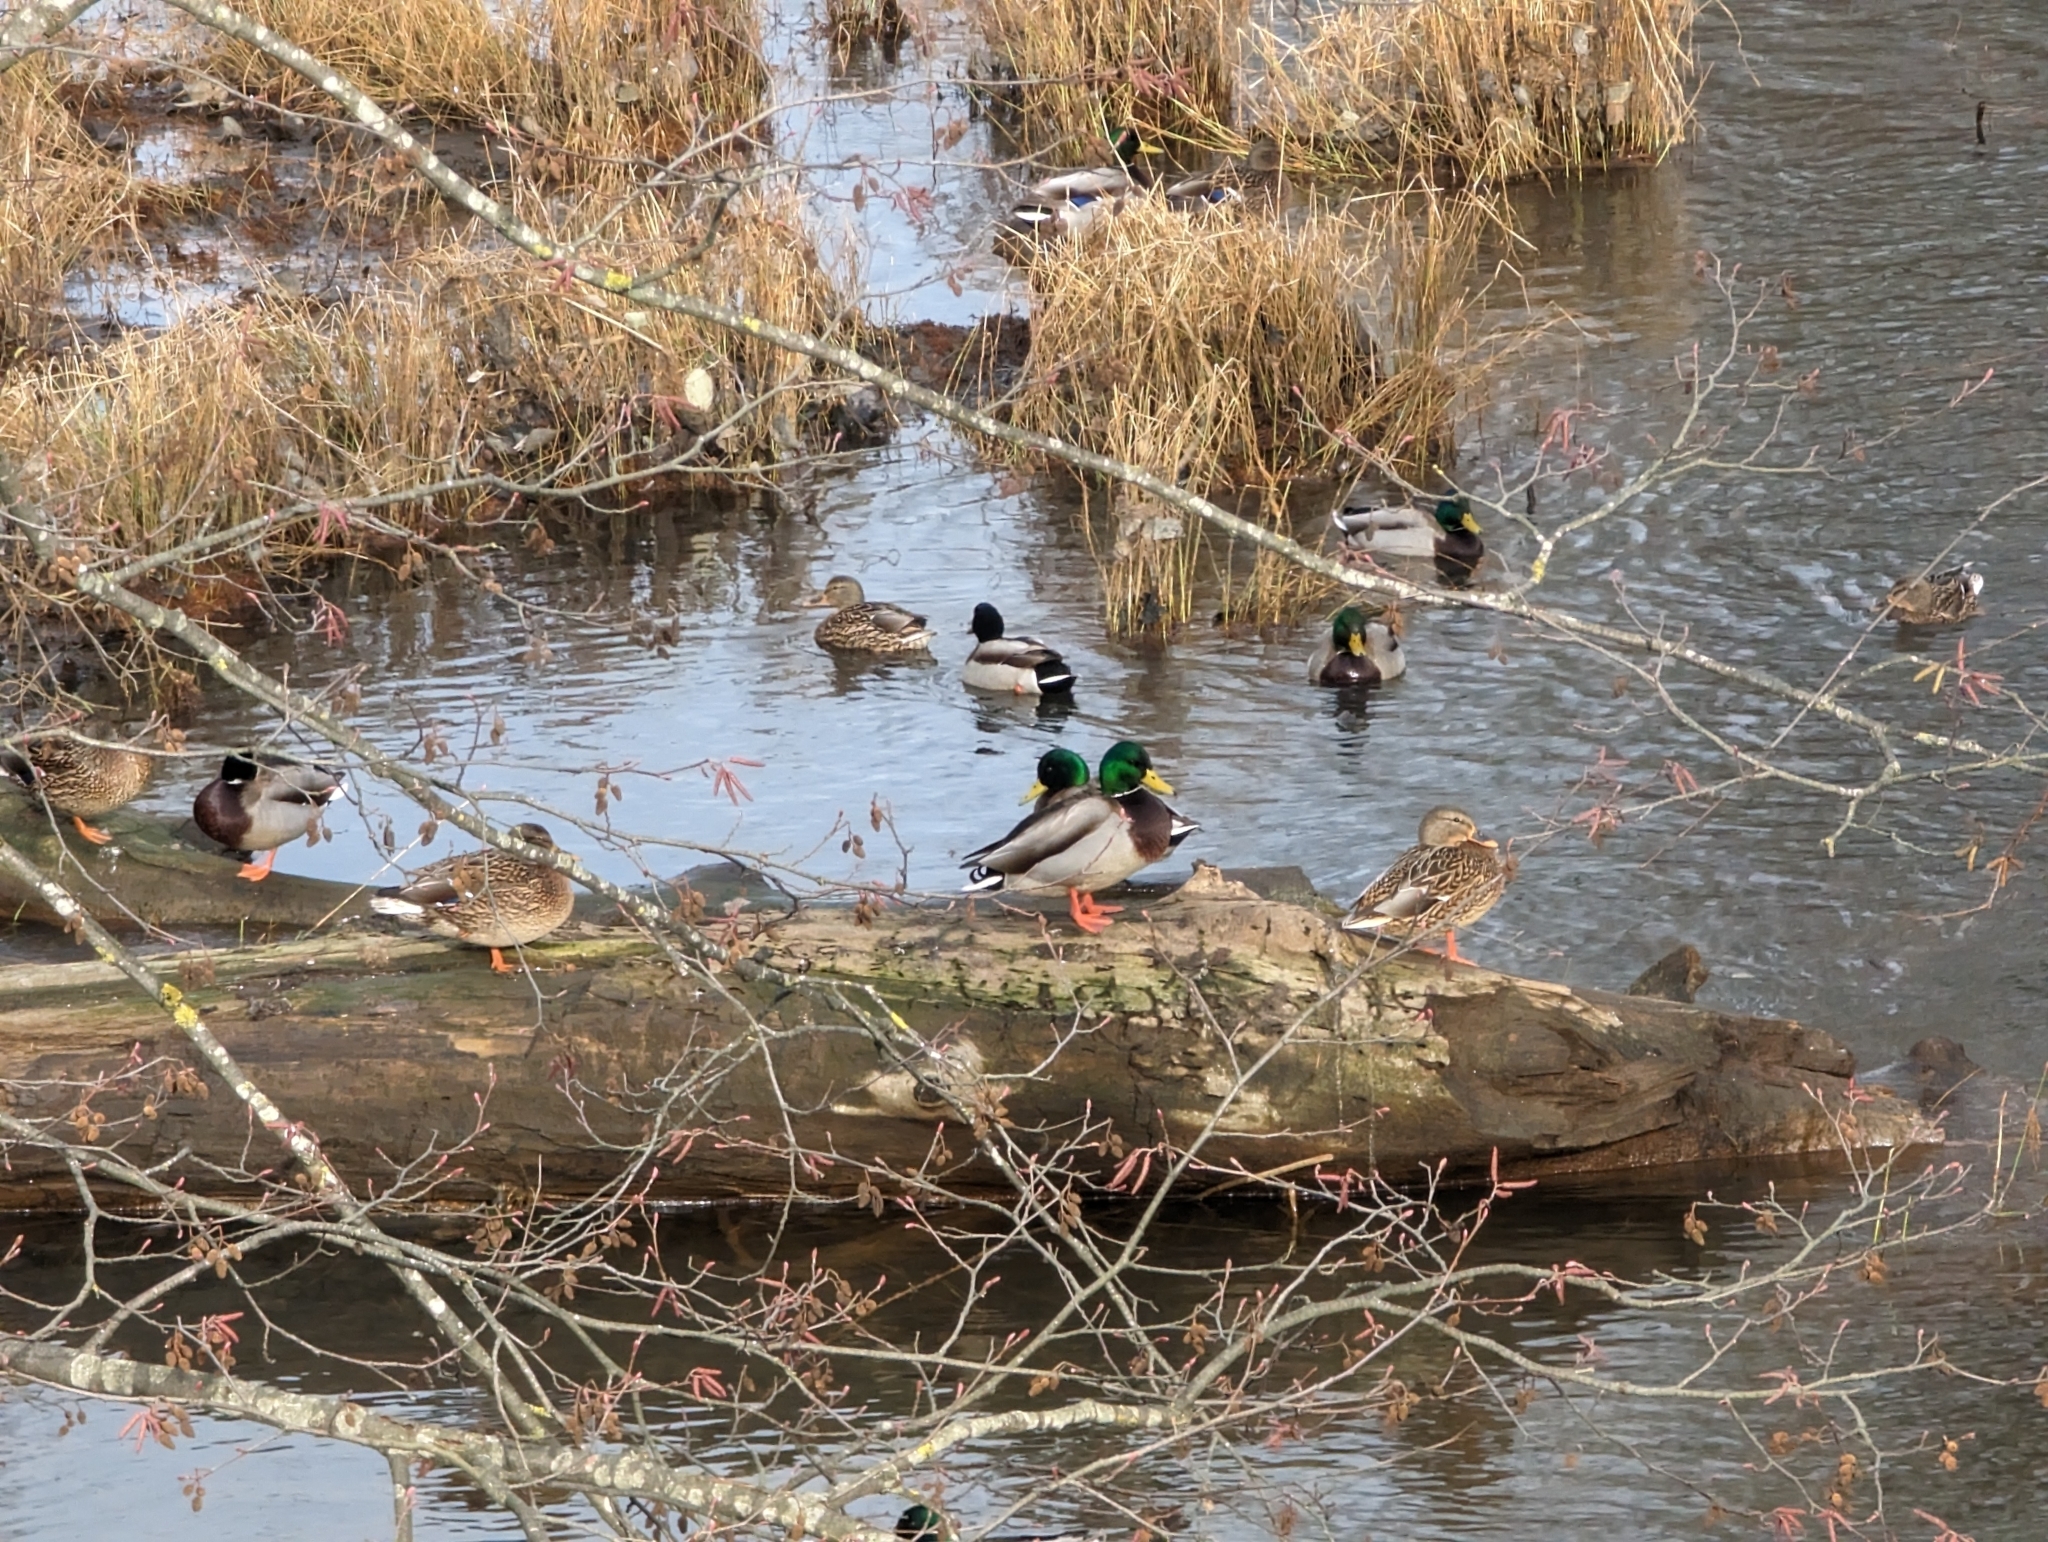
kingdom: Animalia
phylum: Chordata
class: Aves
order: Anseriformes
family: Anatidae
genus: Anas
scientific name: Anas platyrhynchos
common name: Mallard
